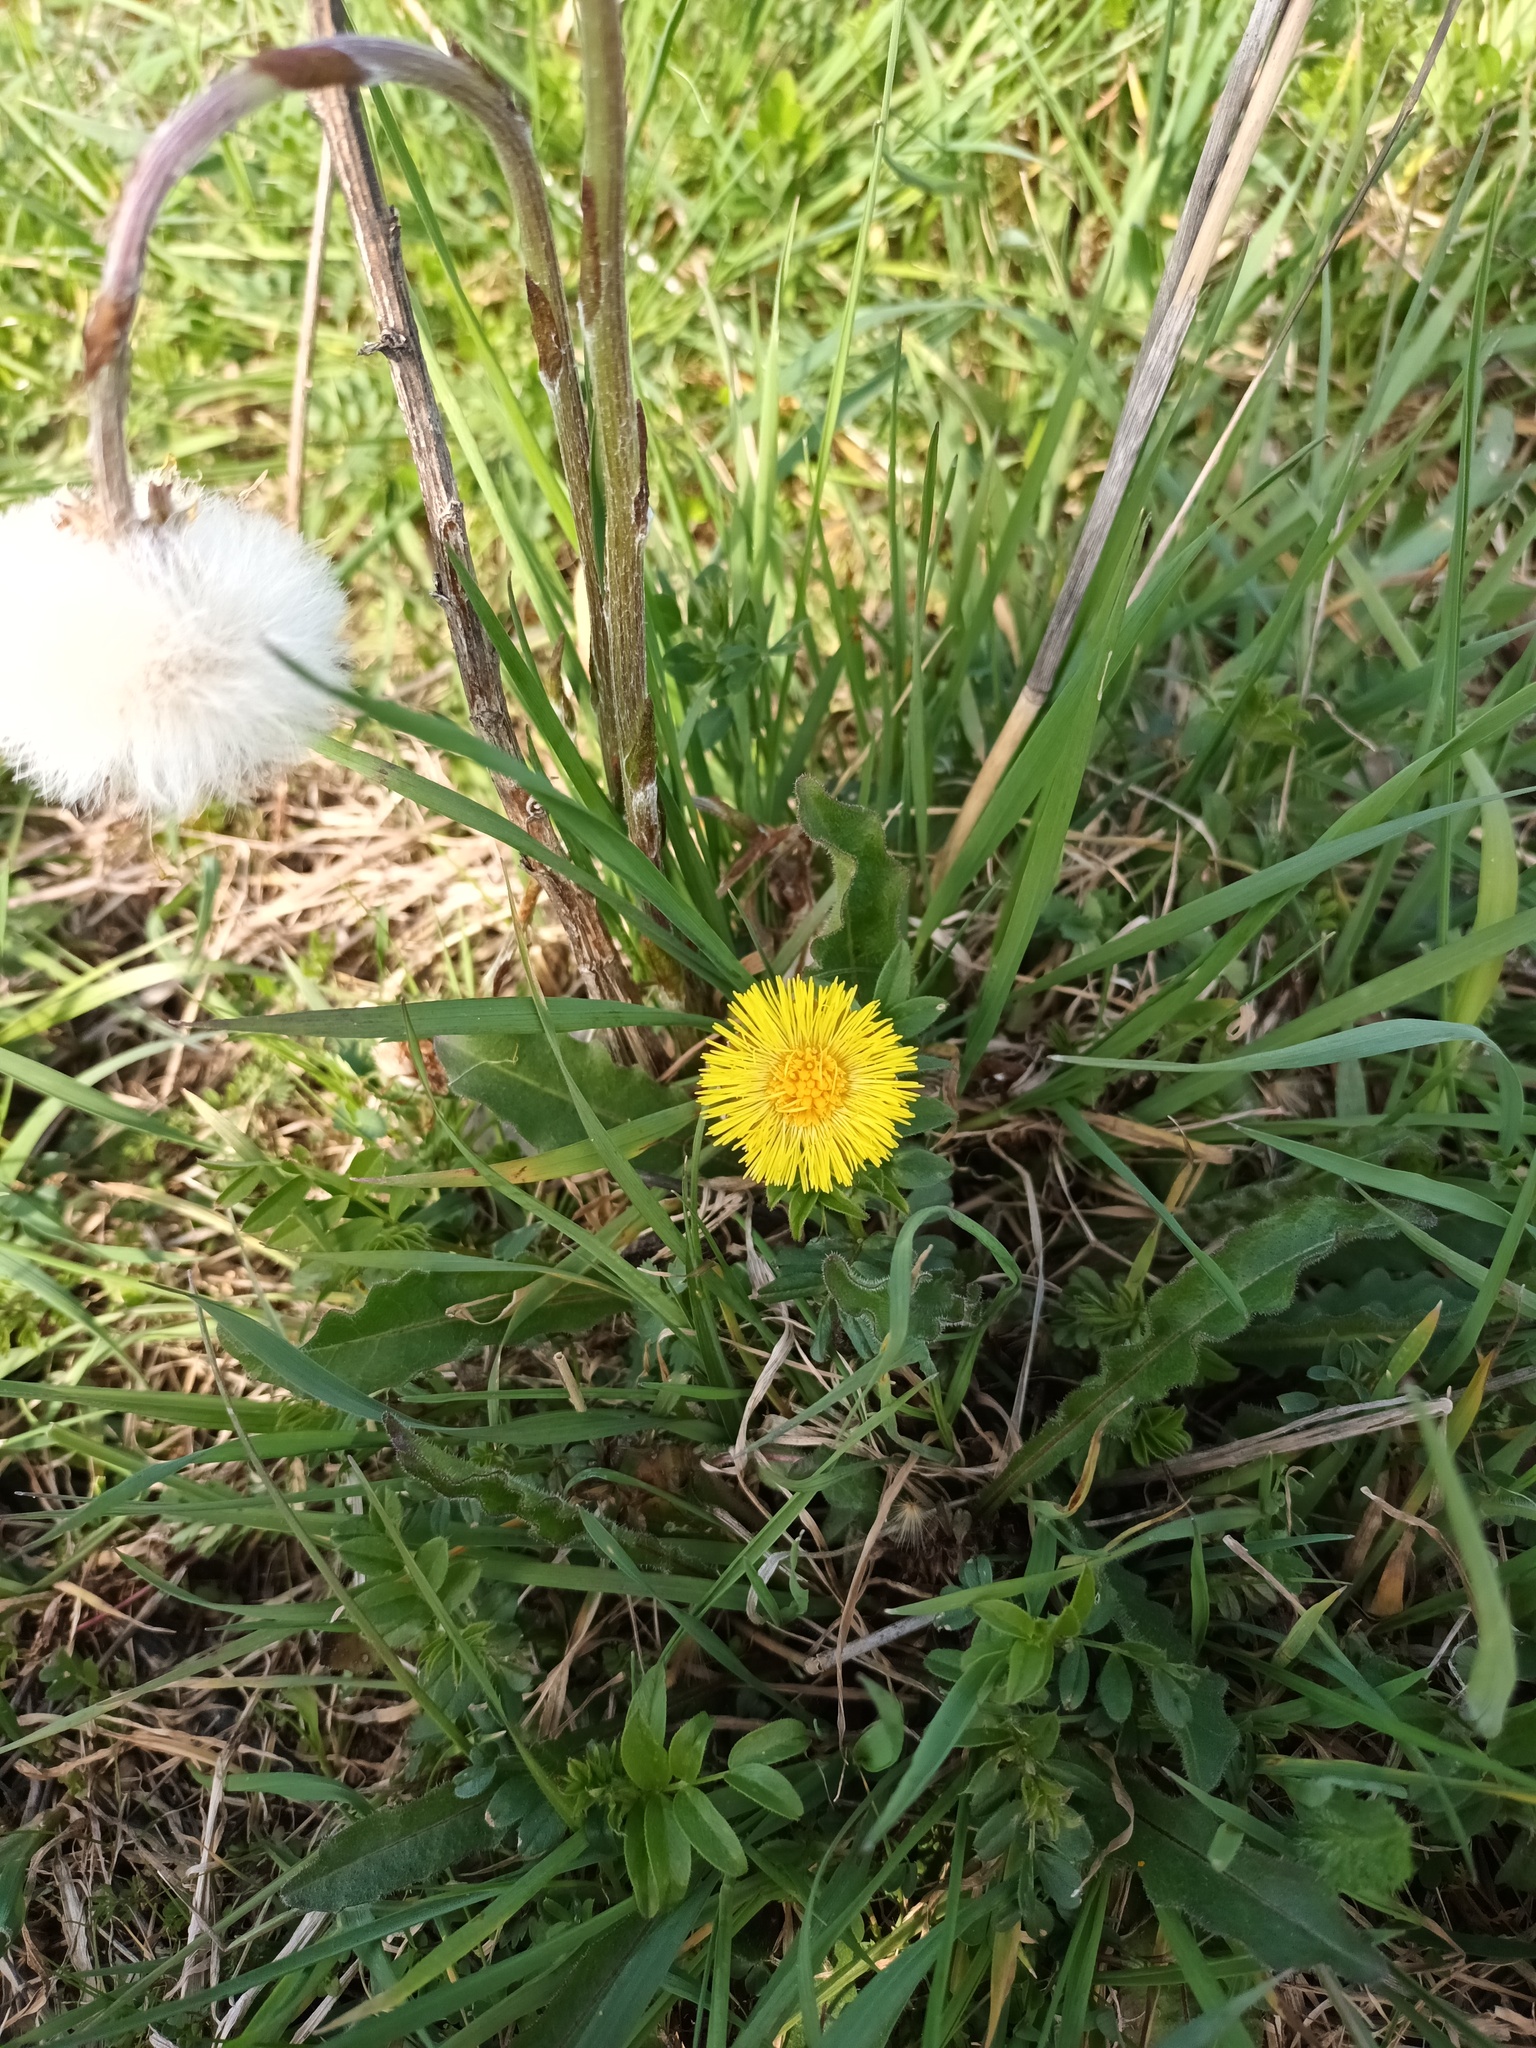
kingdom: Plantae
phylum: Tracheophyta
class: Magnoliopsida
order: Asterales
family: Asteraceae
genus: Tussilago
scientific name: Tussilago farfara
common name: Coltsfoot
